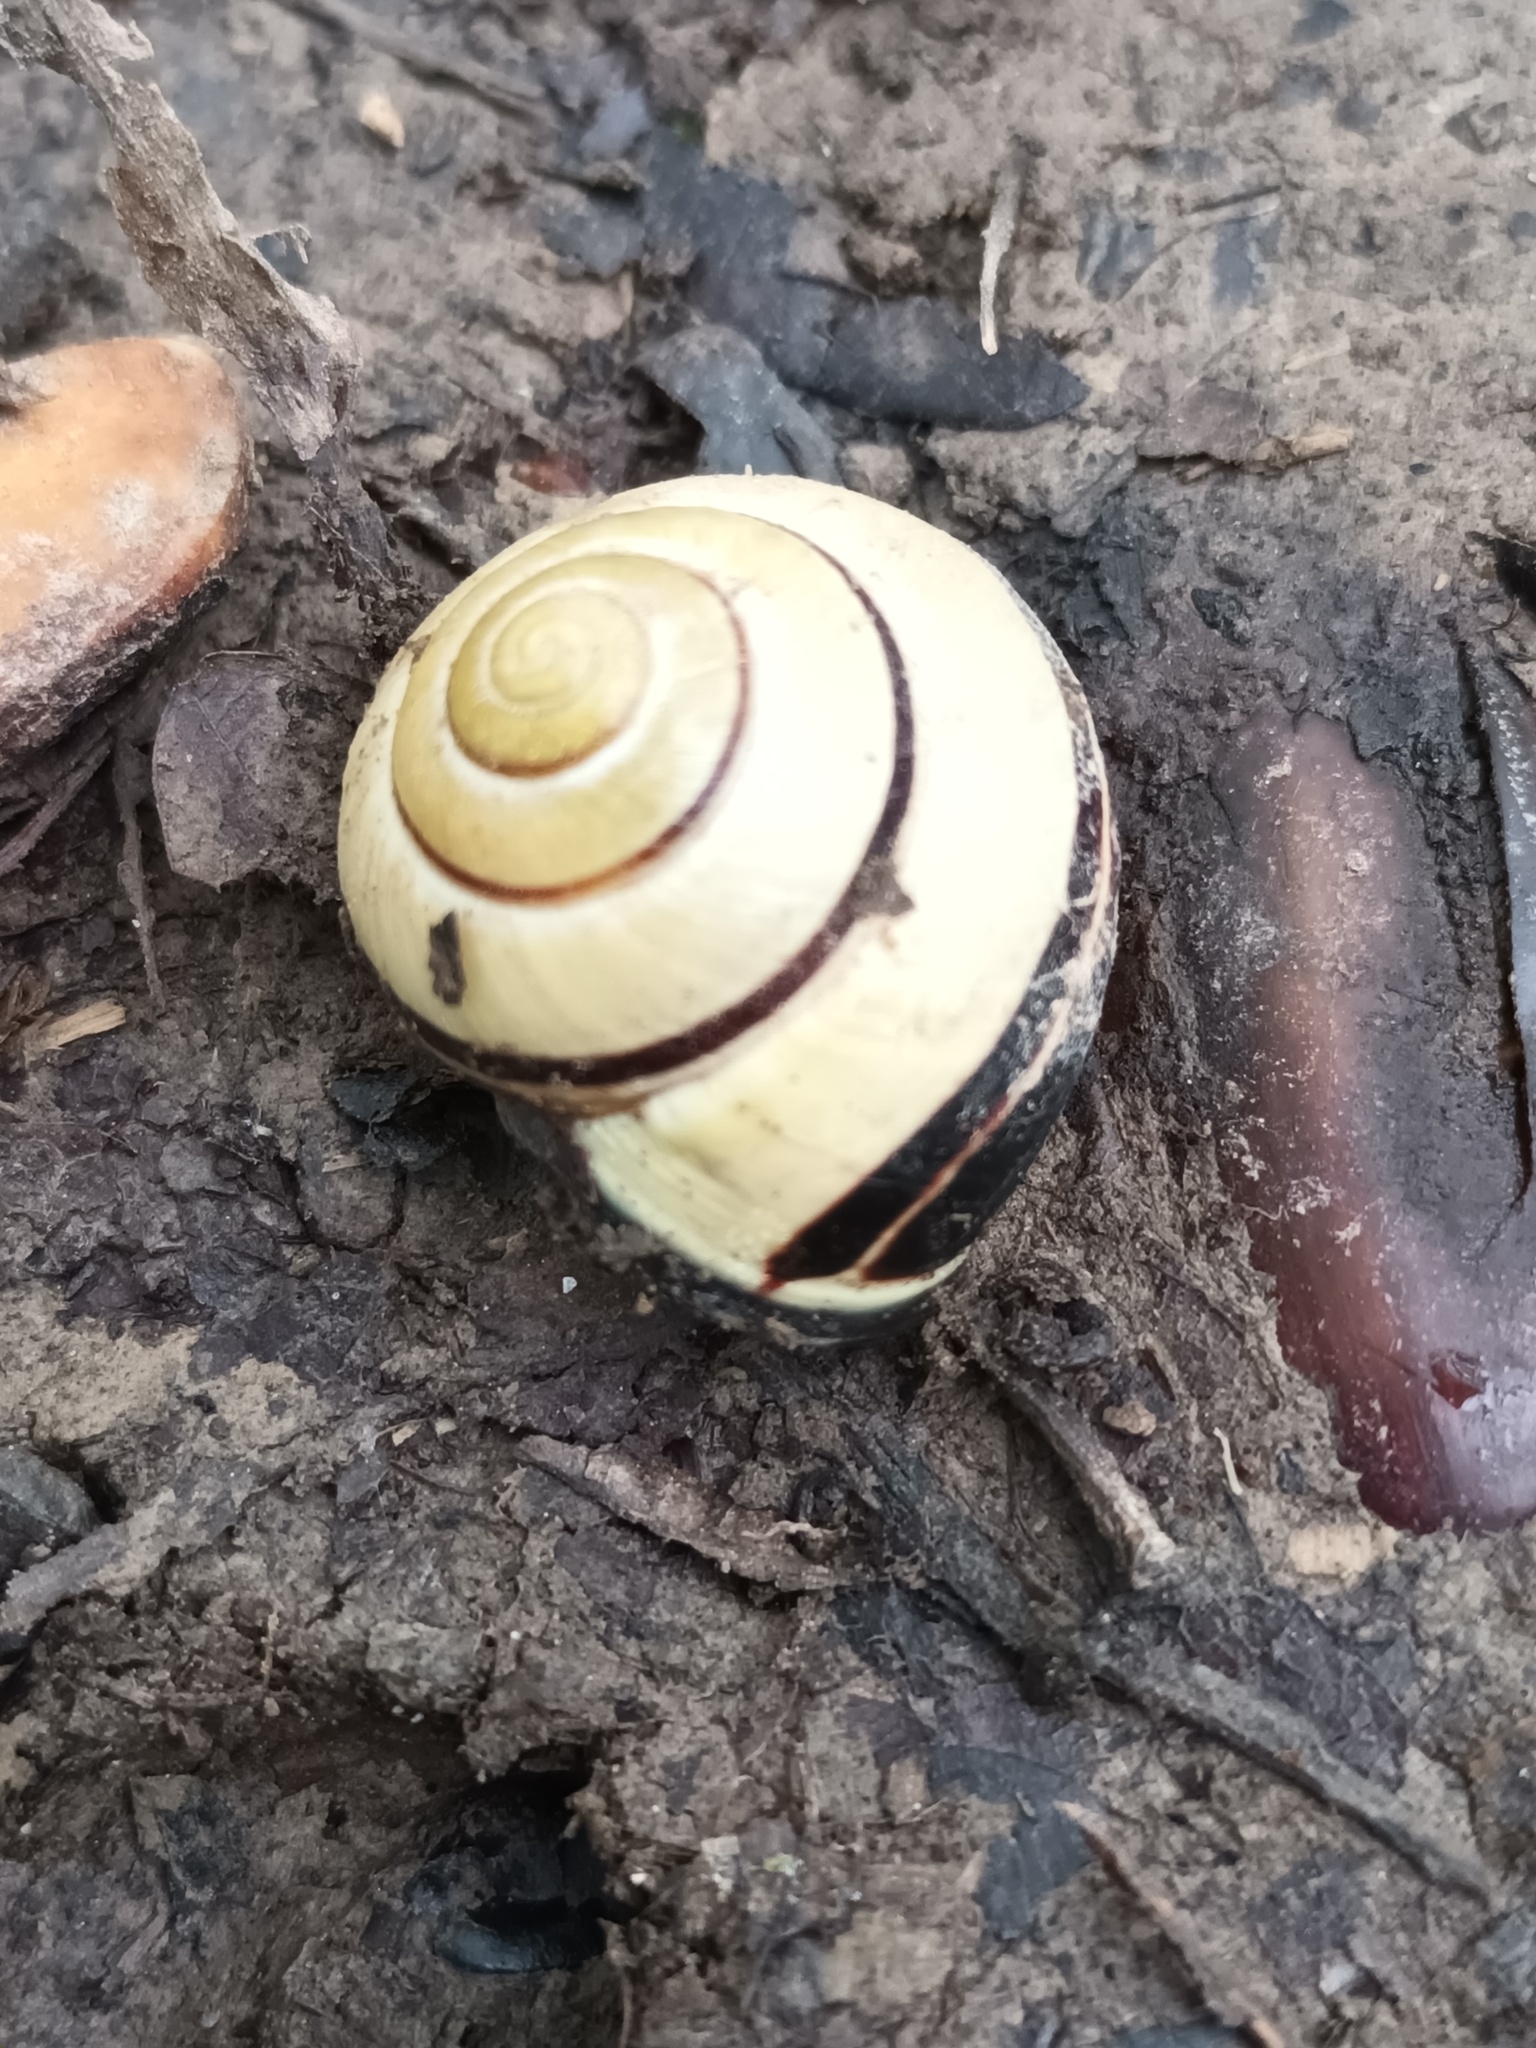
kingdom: Animalia
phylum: Mollusca
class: Gastropoda
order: Stylommatophora
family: Helicidae
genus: Cepaea
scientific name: Cepaea nemoralis
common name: Grovesnail
